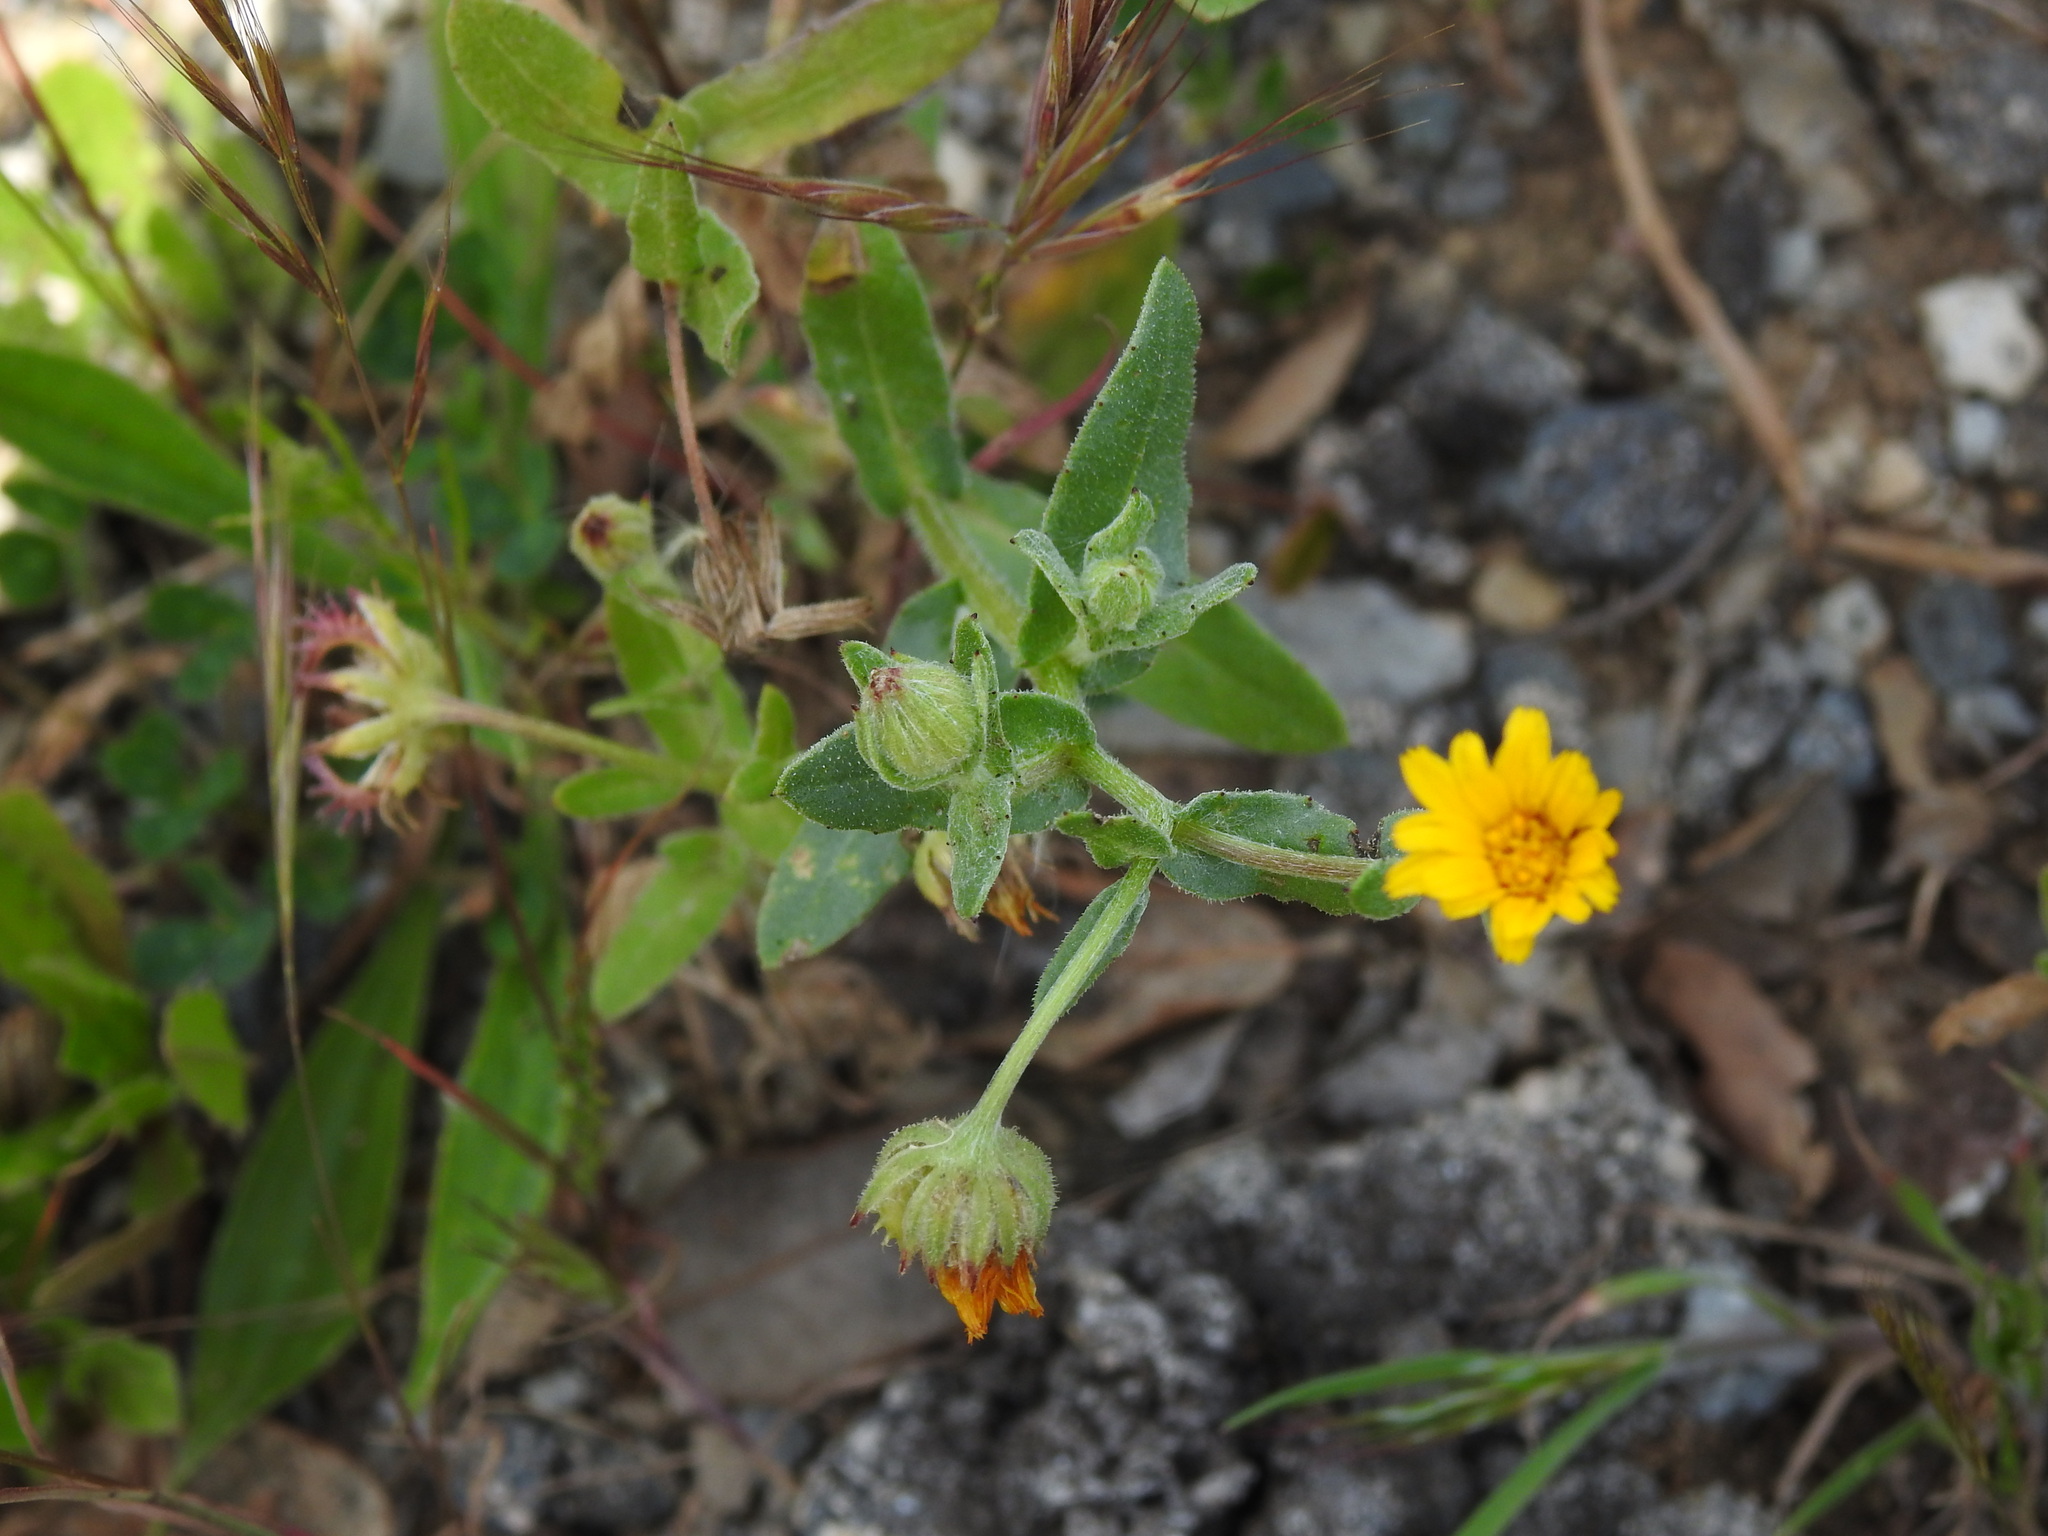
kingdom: Plantae
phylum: Tracheophyta
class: Magnoliopsida
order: Asterales
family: Asteraceae
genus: Calendula
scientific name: Calendula arvensis
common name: Field marigold
